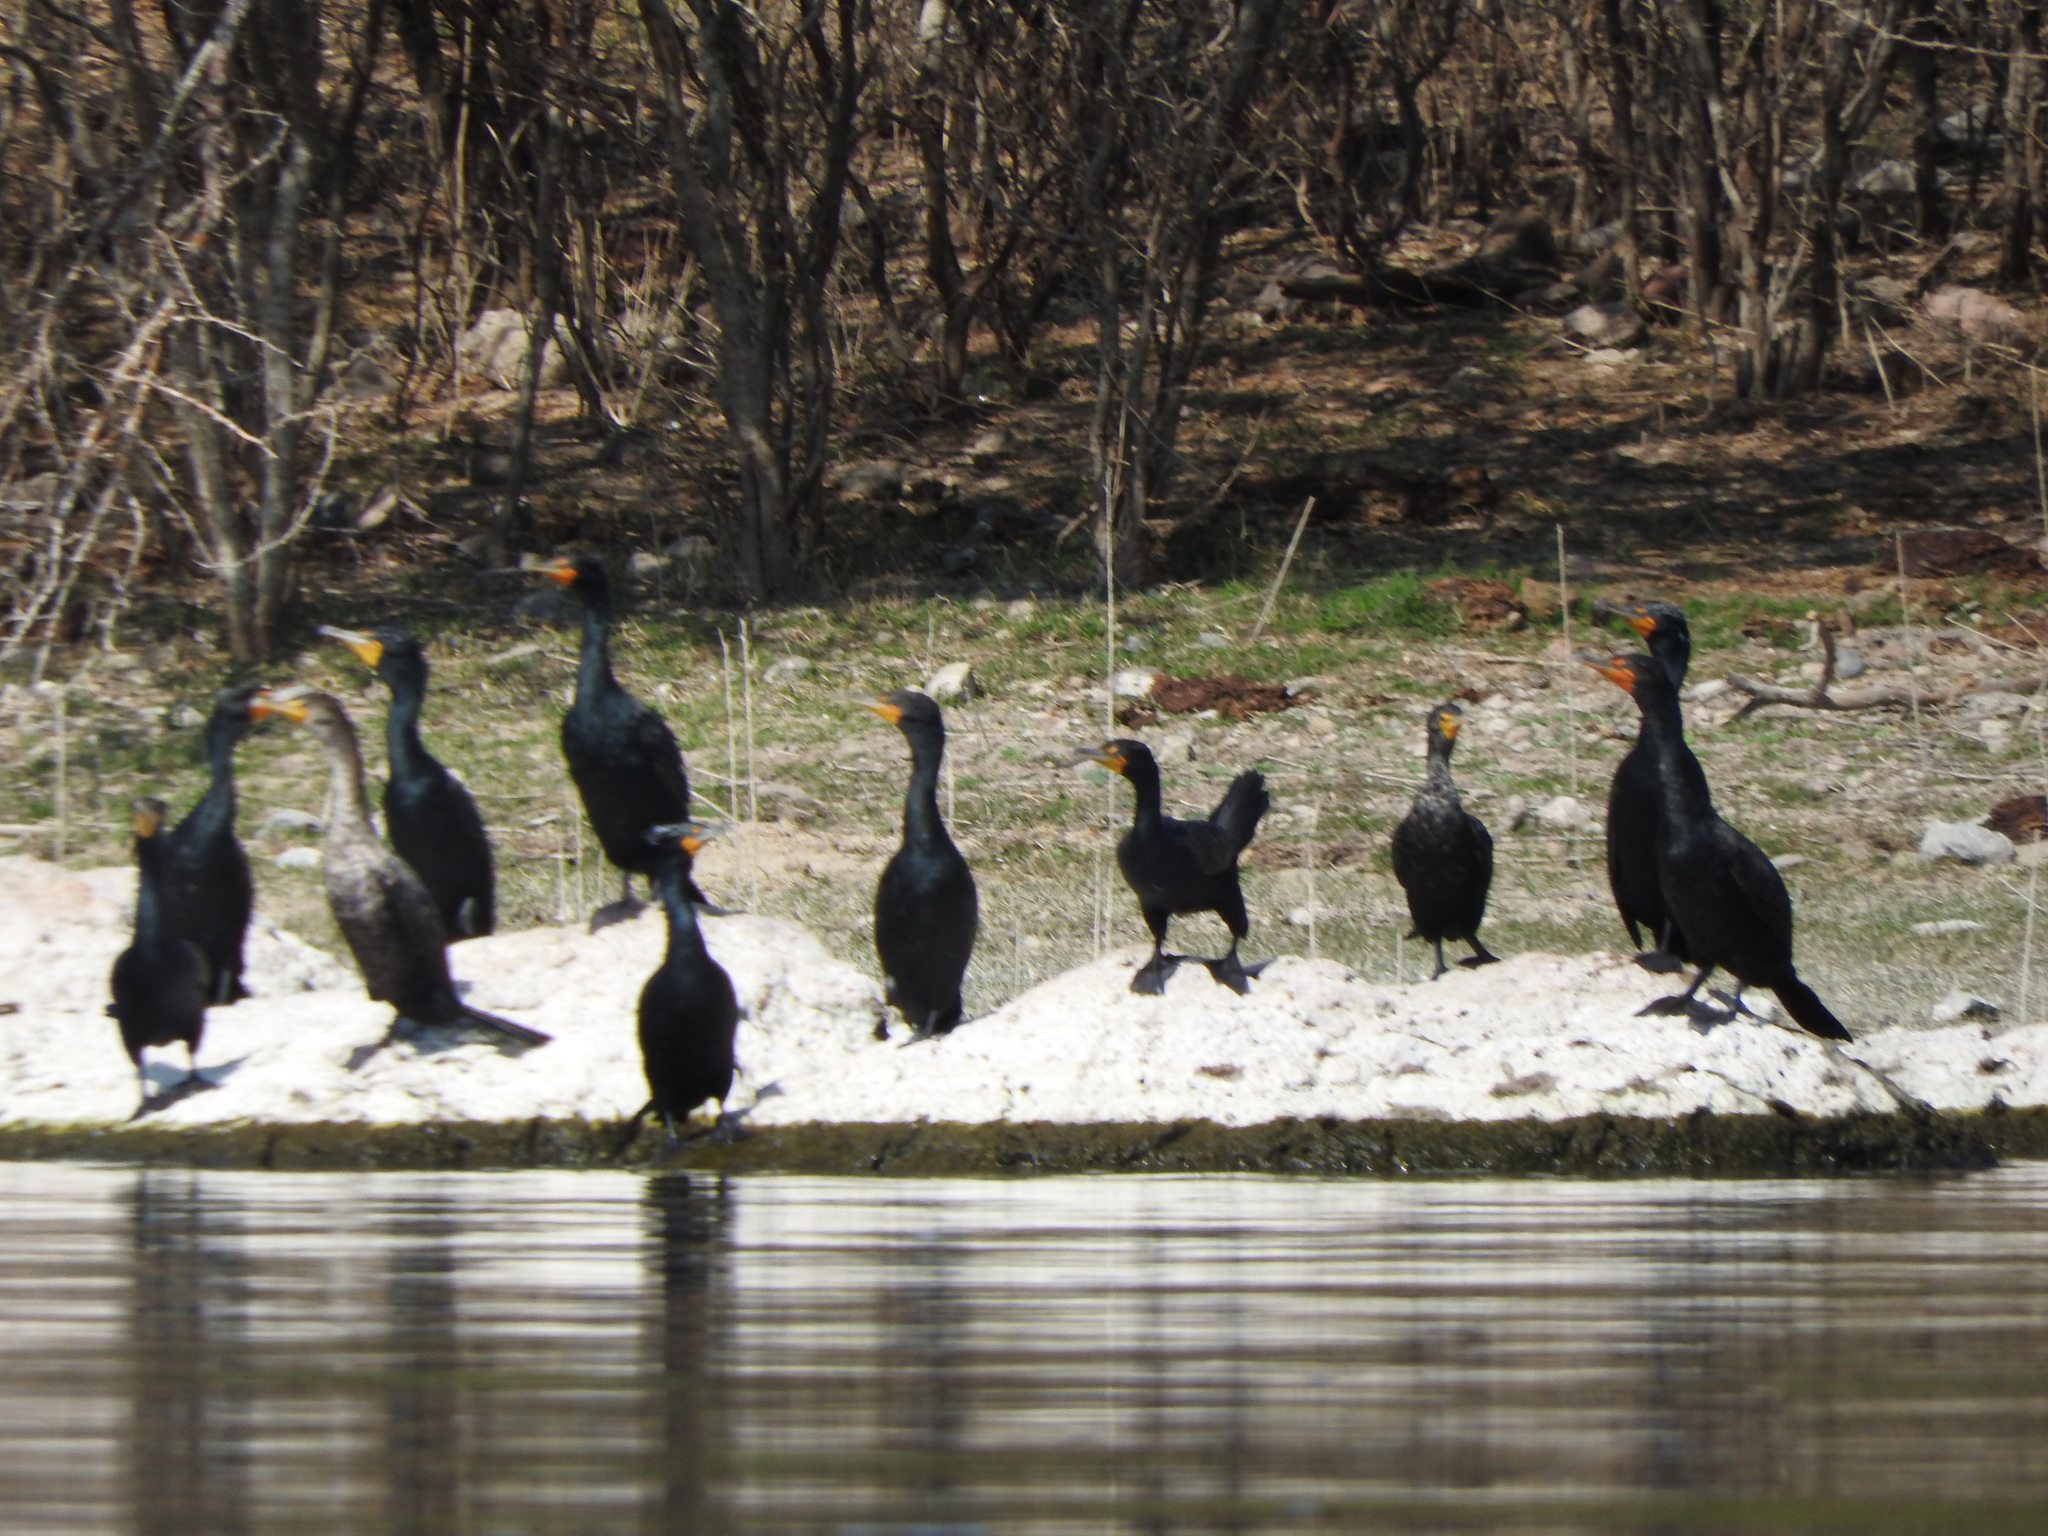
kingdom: Animalia
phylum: Chordata
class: Aves
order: Suliformes
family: Phalacrocoracidae
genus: Phalacrocorax
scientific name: Phalacrocorax auritus
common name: Double-crested cormorant
